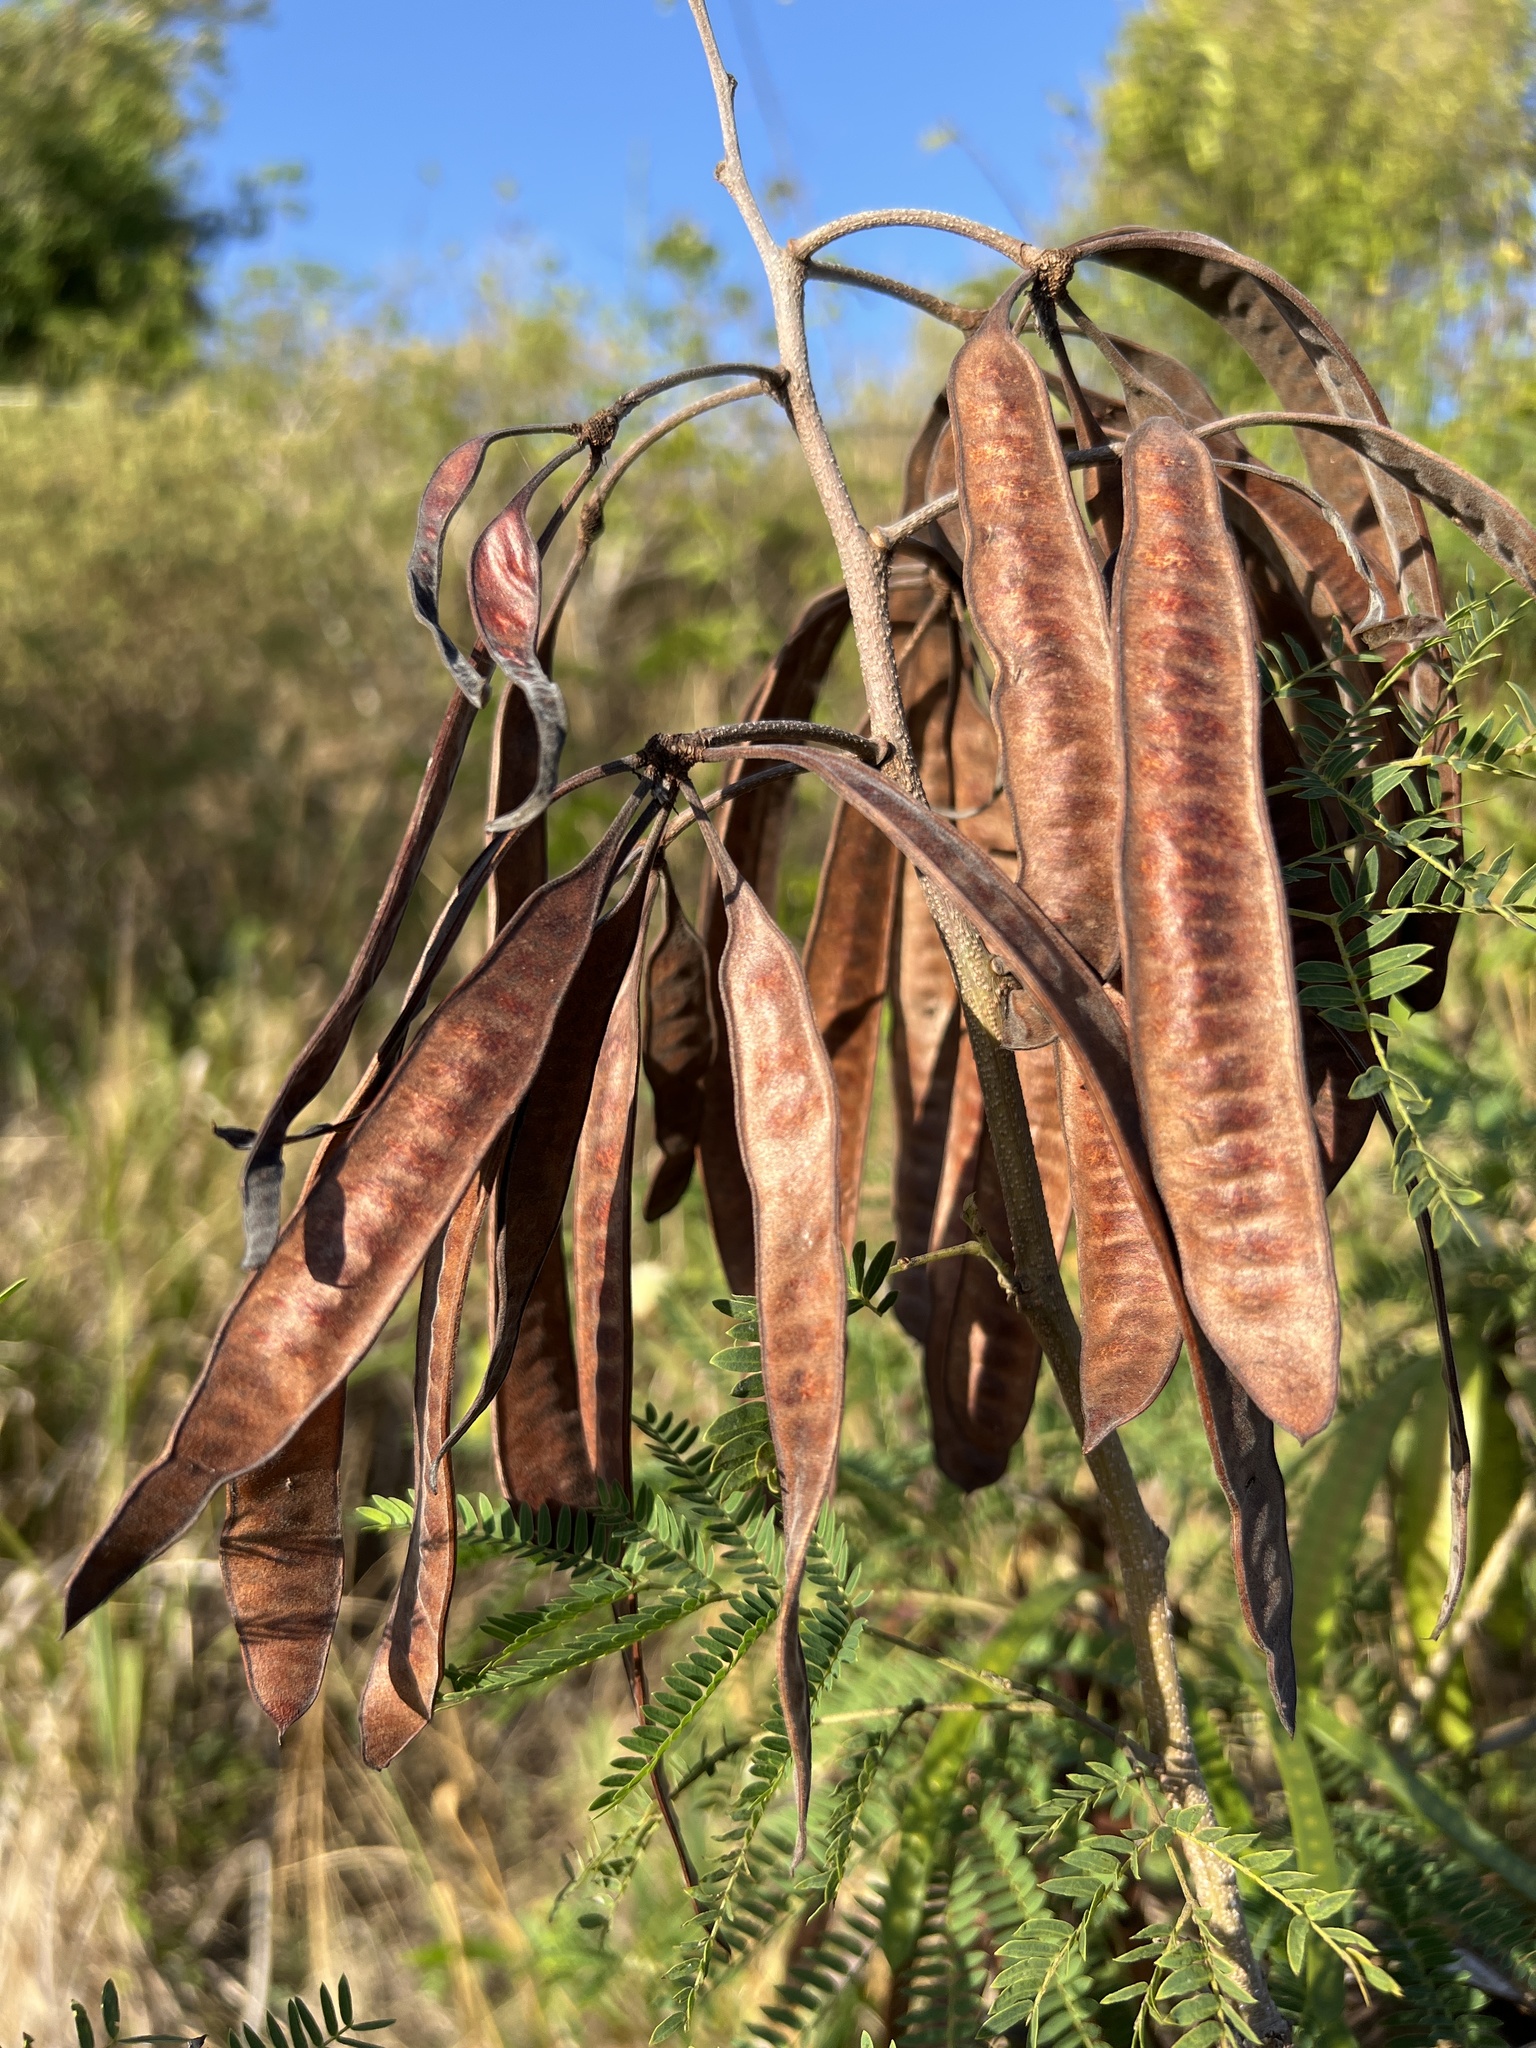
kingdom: Plantae
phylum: Tracheophyta
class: Magnoliopsida
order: Fabales
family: Fabaceae
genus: Leucaena
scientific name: Leucaena leucocephala
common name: White leadtree
